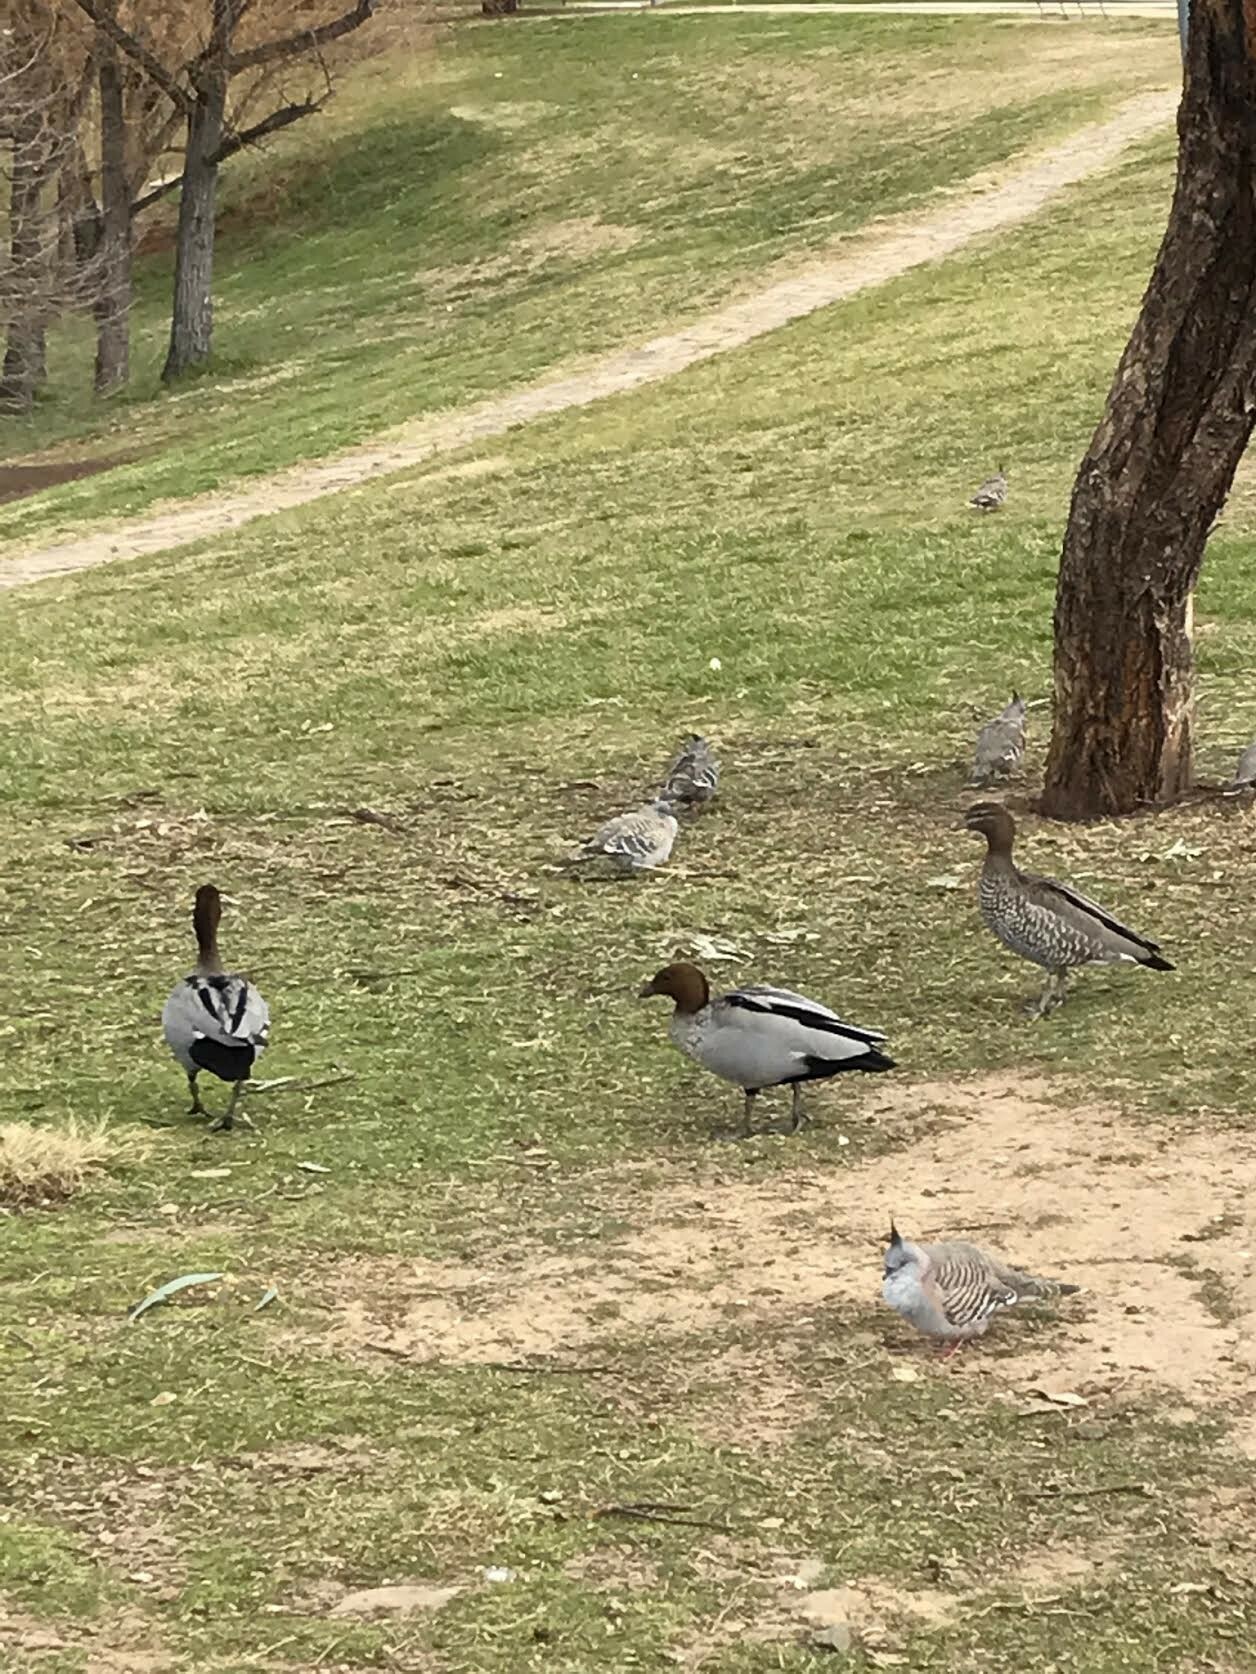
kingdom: Animalia
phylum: Chordata
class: Aves
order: Anseriformes
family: Anatidae
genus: Chenonetta
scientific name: Chenonetta jubata
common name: Maned duck
